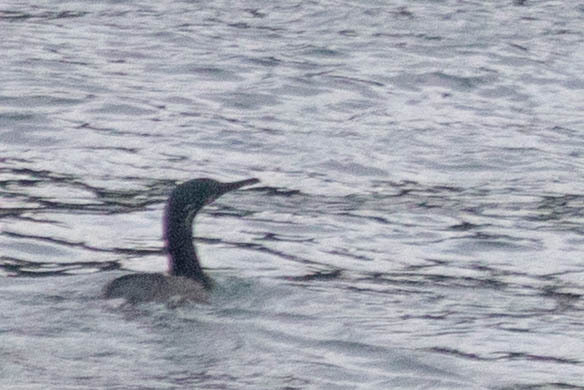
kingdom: Animalia
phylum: Chordata
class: Aves
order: Suliformes
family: Phalacrocoracidae
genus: Urile
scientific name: Urile penicillatus
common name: Brandt's cormorant
